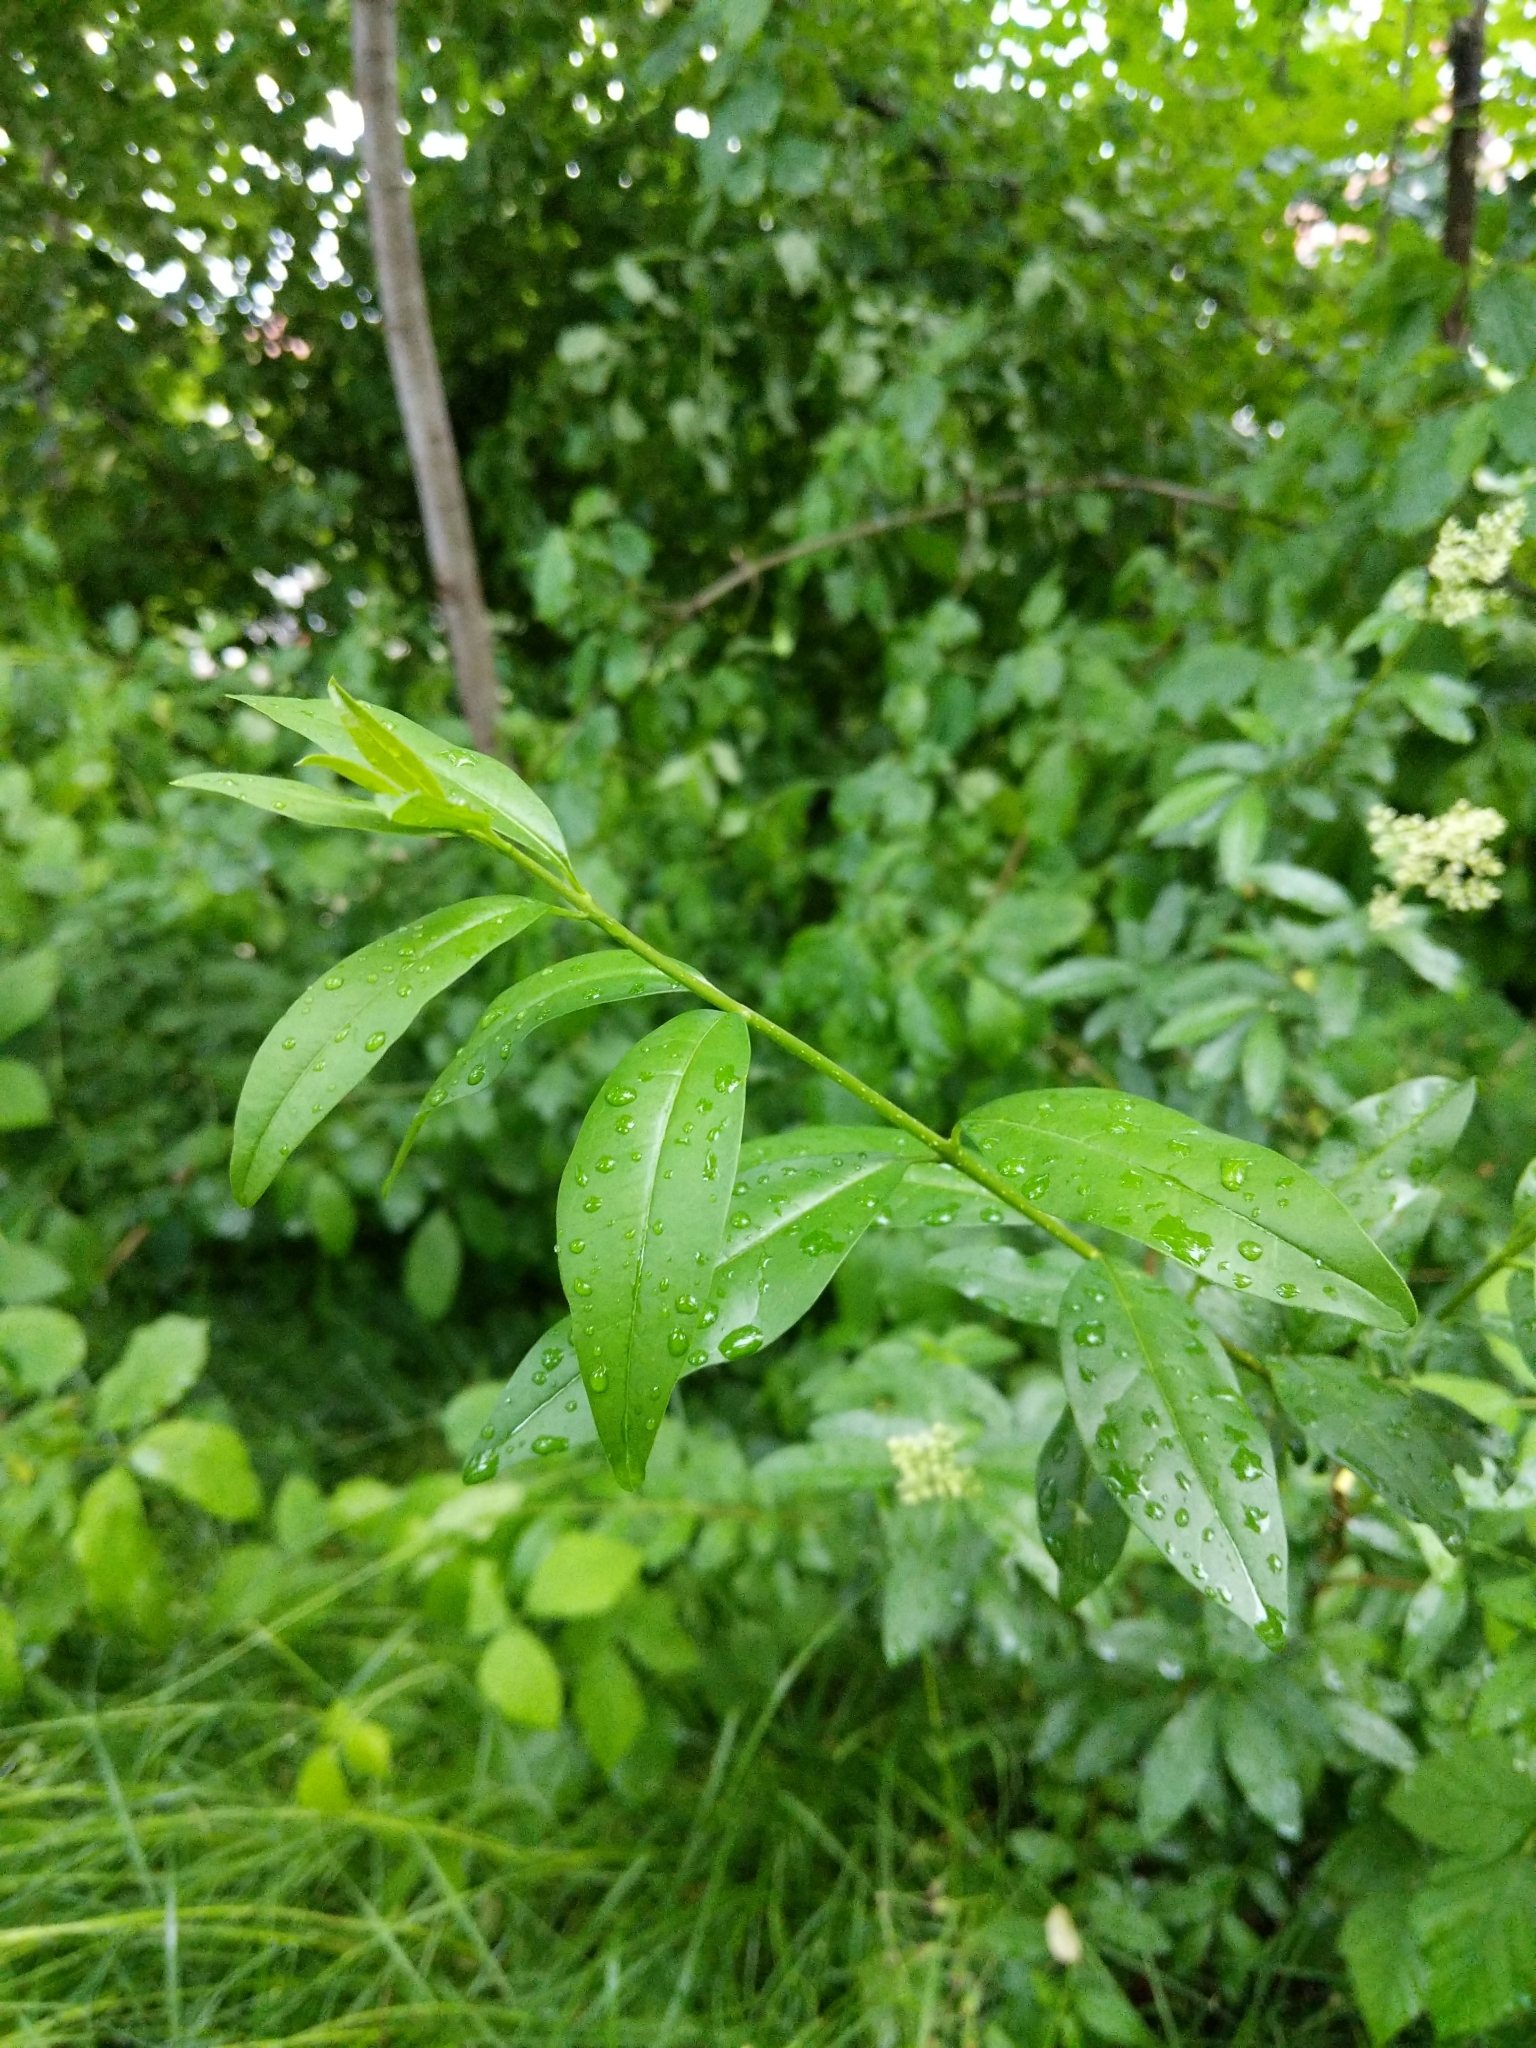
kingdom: Plantae
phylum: Tracheophyta
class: Magnoliopsida
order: Lamiales
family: Oleaceae
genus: Ligustrum
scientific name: Ligustrum vulgare
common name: Wild privet
